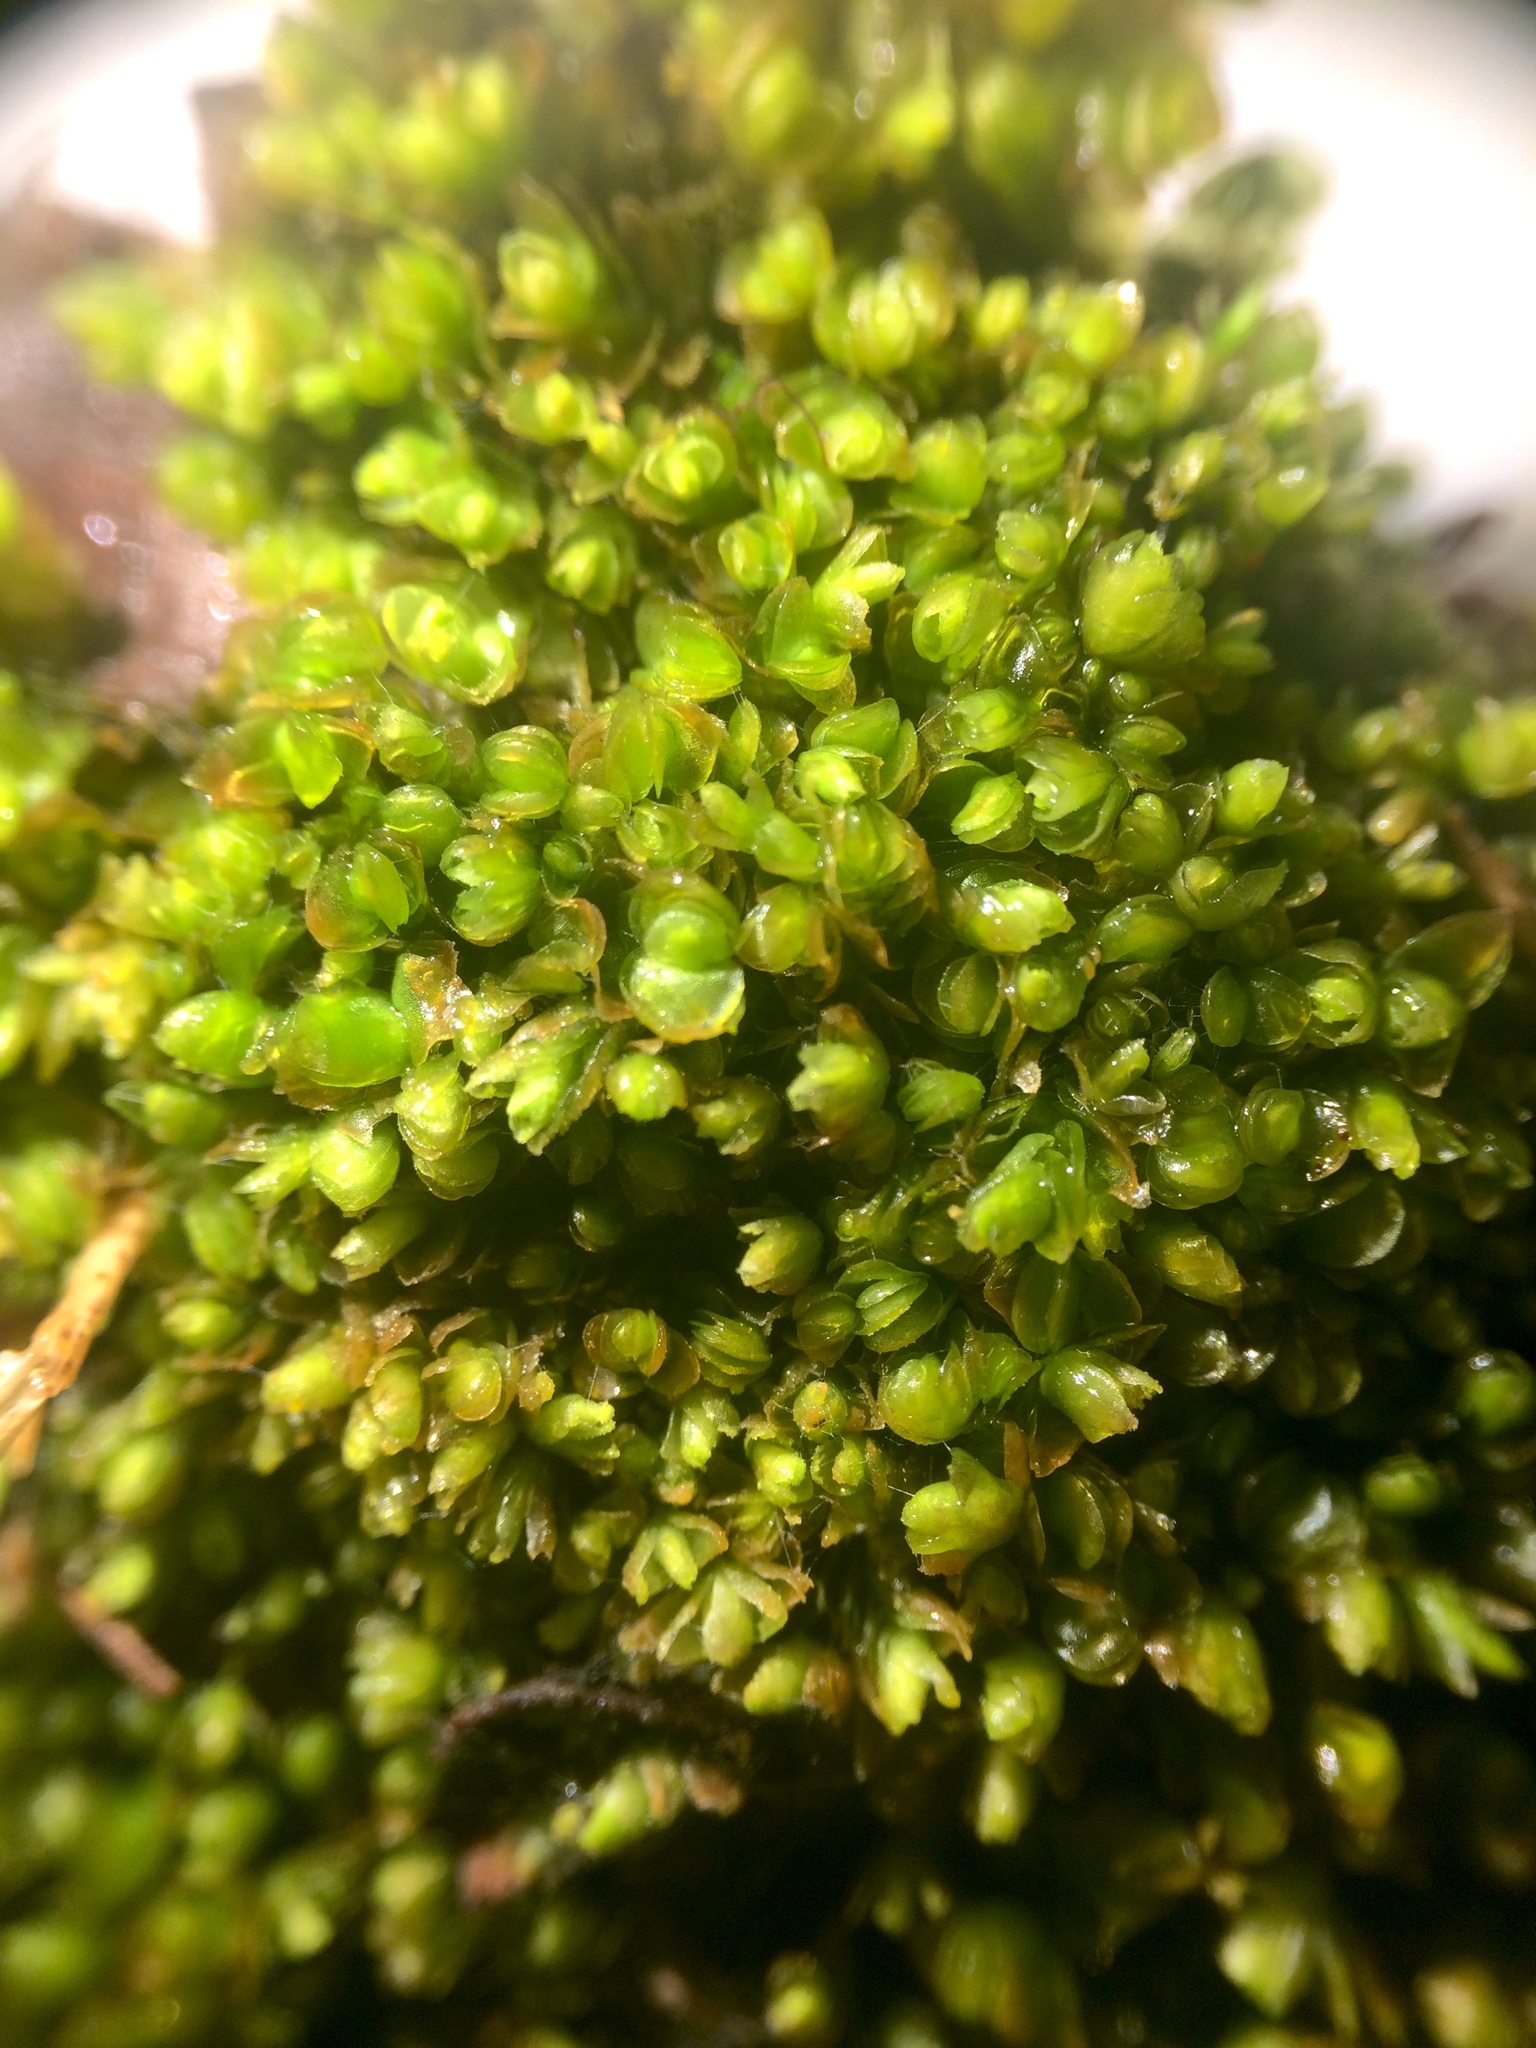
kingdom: Plantae
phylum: Marchantiophyta
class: Jungermanniopsida
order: Jungermanniales
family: Myliaceae
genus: Mylia
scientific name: Mylia anomala
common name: Anomalous flapwort
